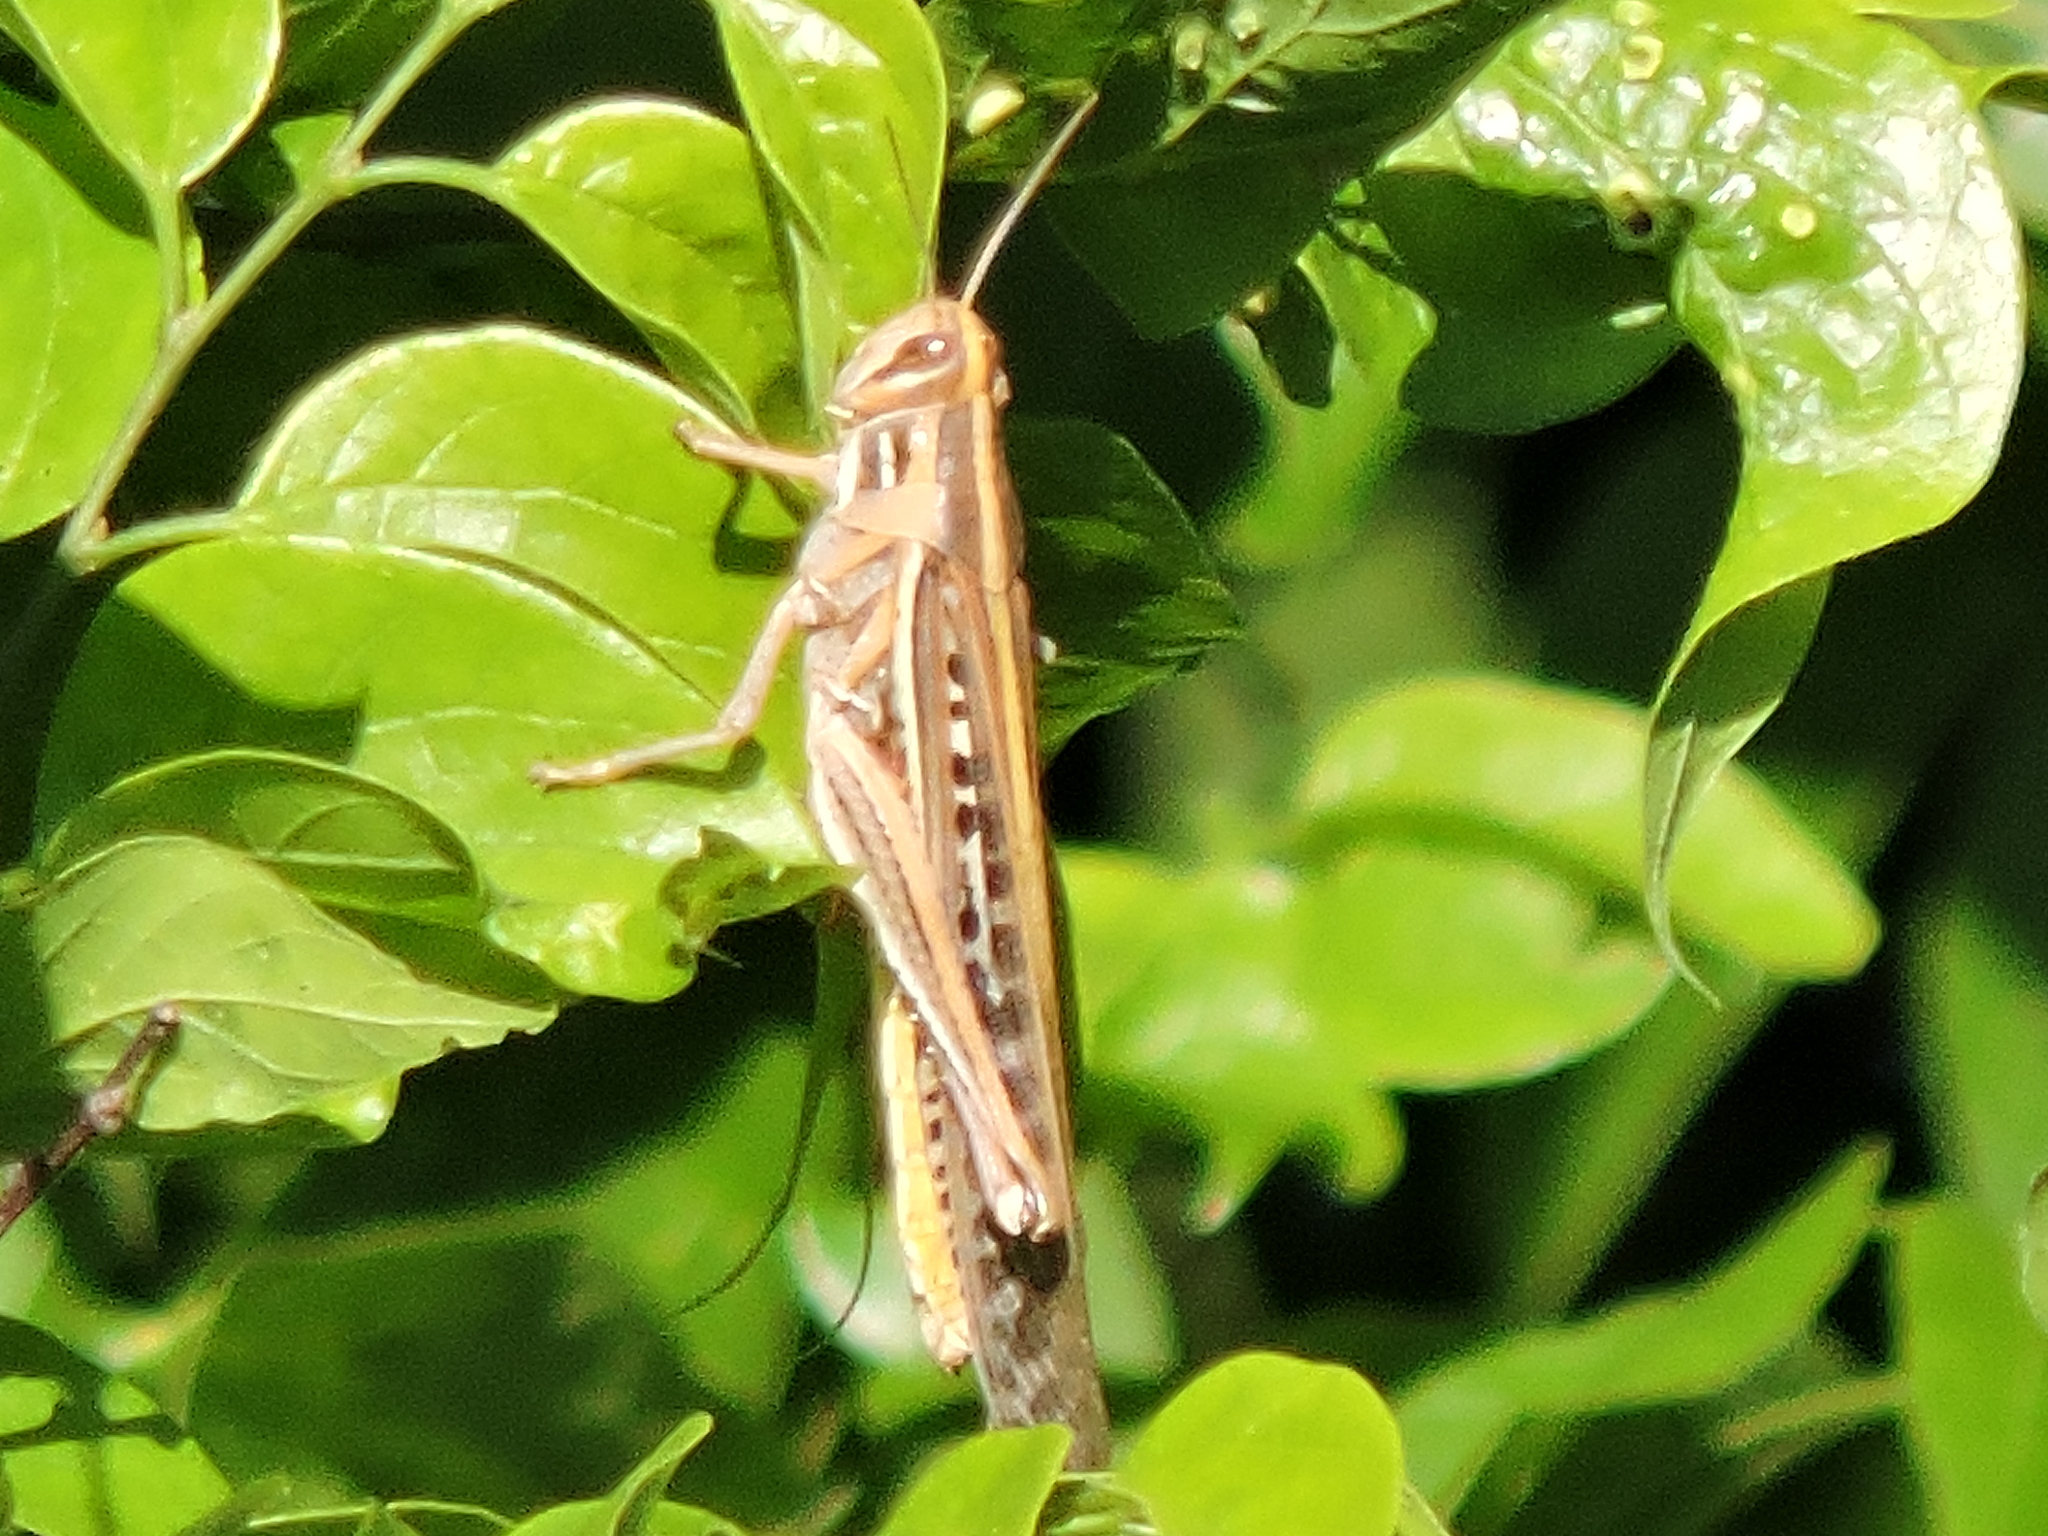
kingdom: Animalia
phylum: Arthropoda
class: Insecta
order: Orthoptera
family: Acrididae
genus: Schistocerca
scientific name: Schistocerca americana
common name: American bird locust
